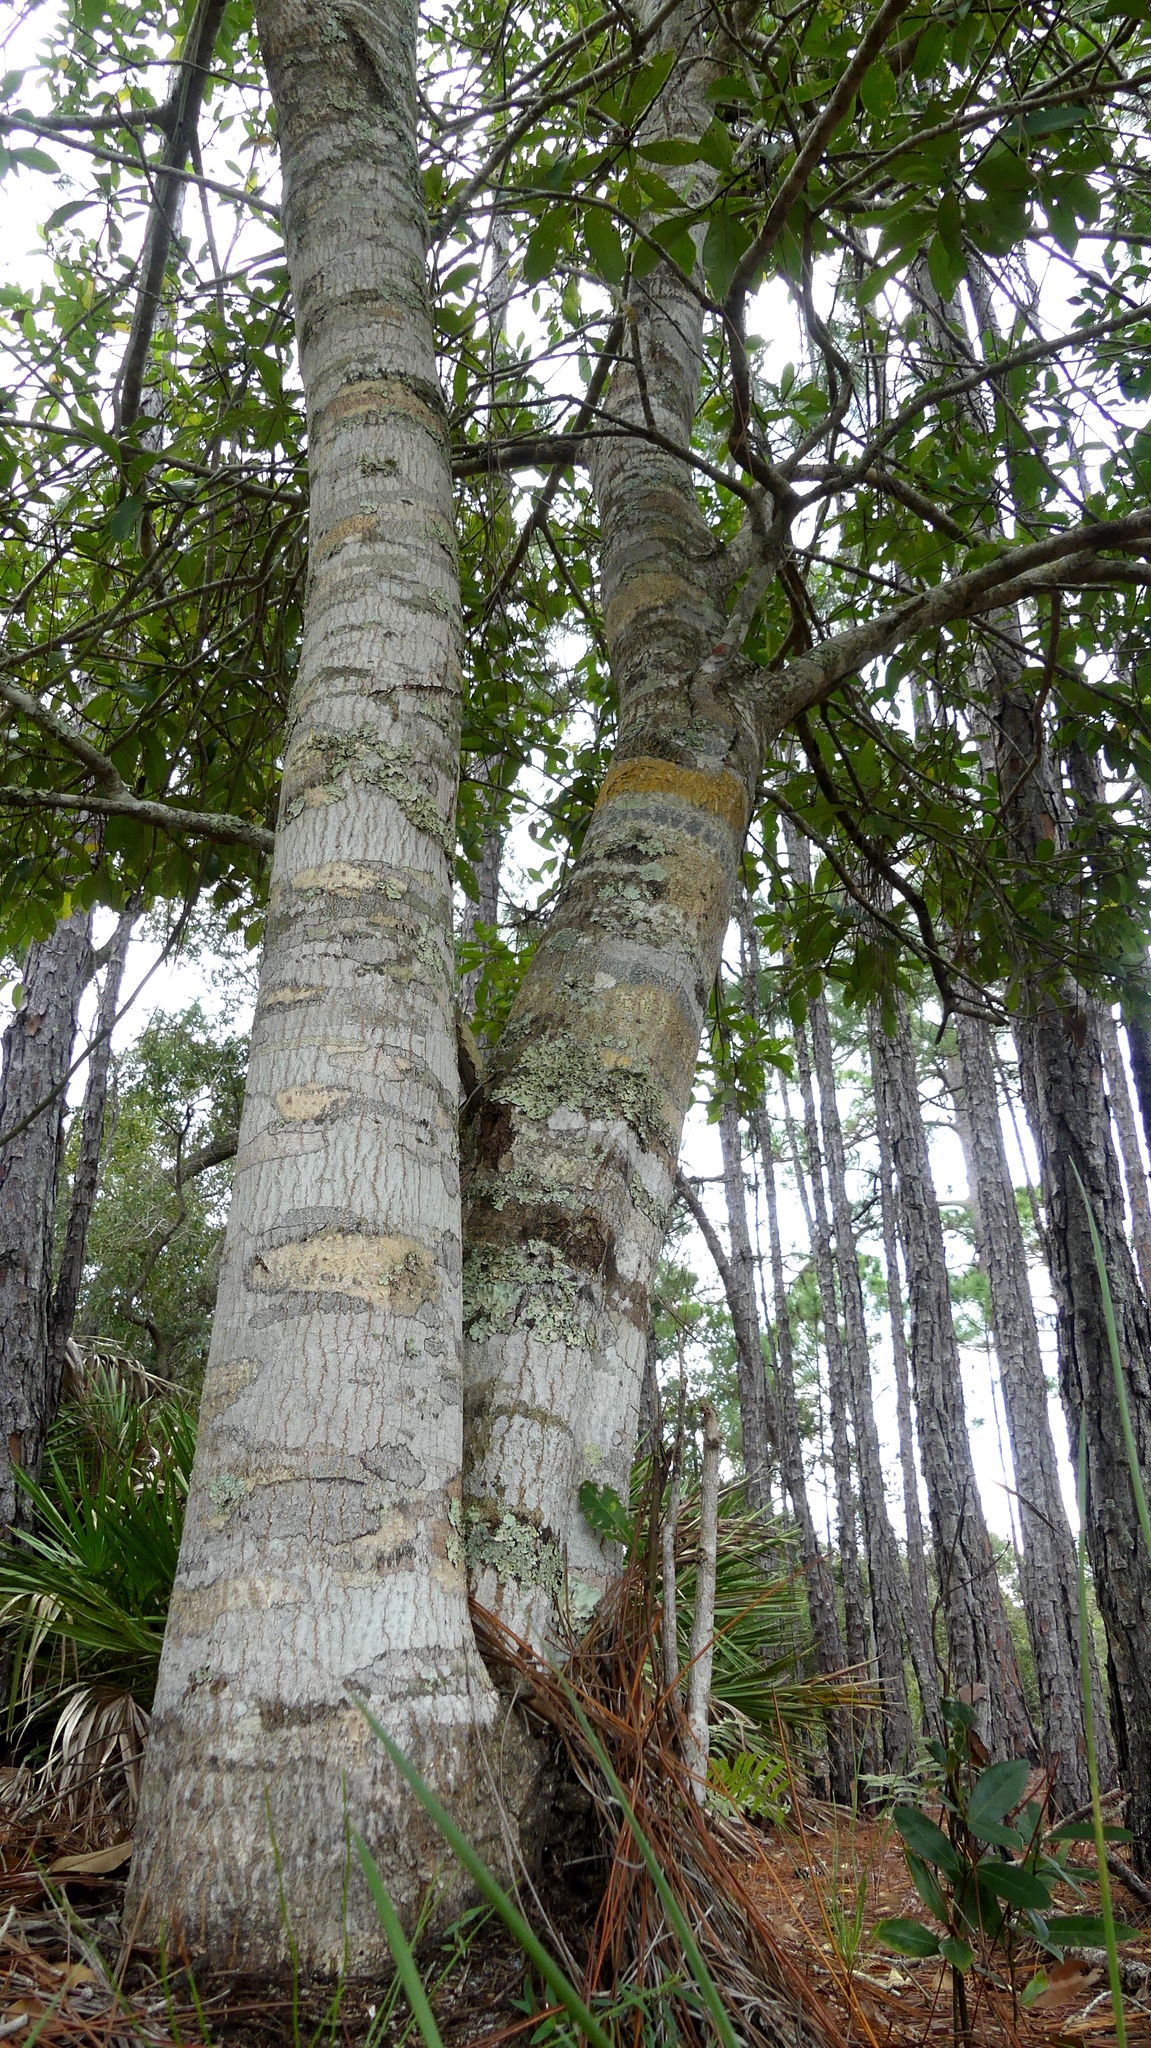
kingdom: Plantae
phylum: Tracheophyta
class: Magnoliopsida
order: Aquifoliales
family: Aquifoliaceae
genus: Ilex
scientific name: Ilex cassine
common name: Dahoon
